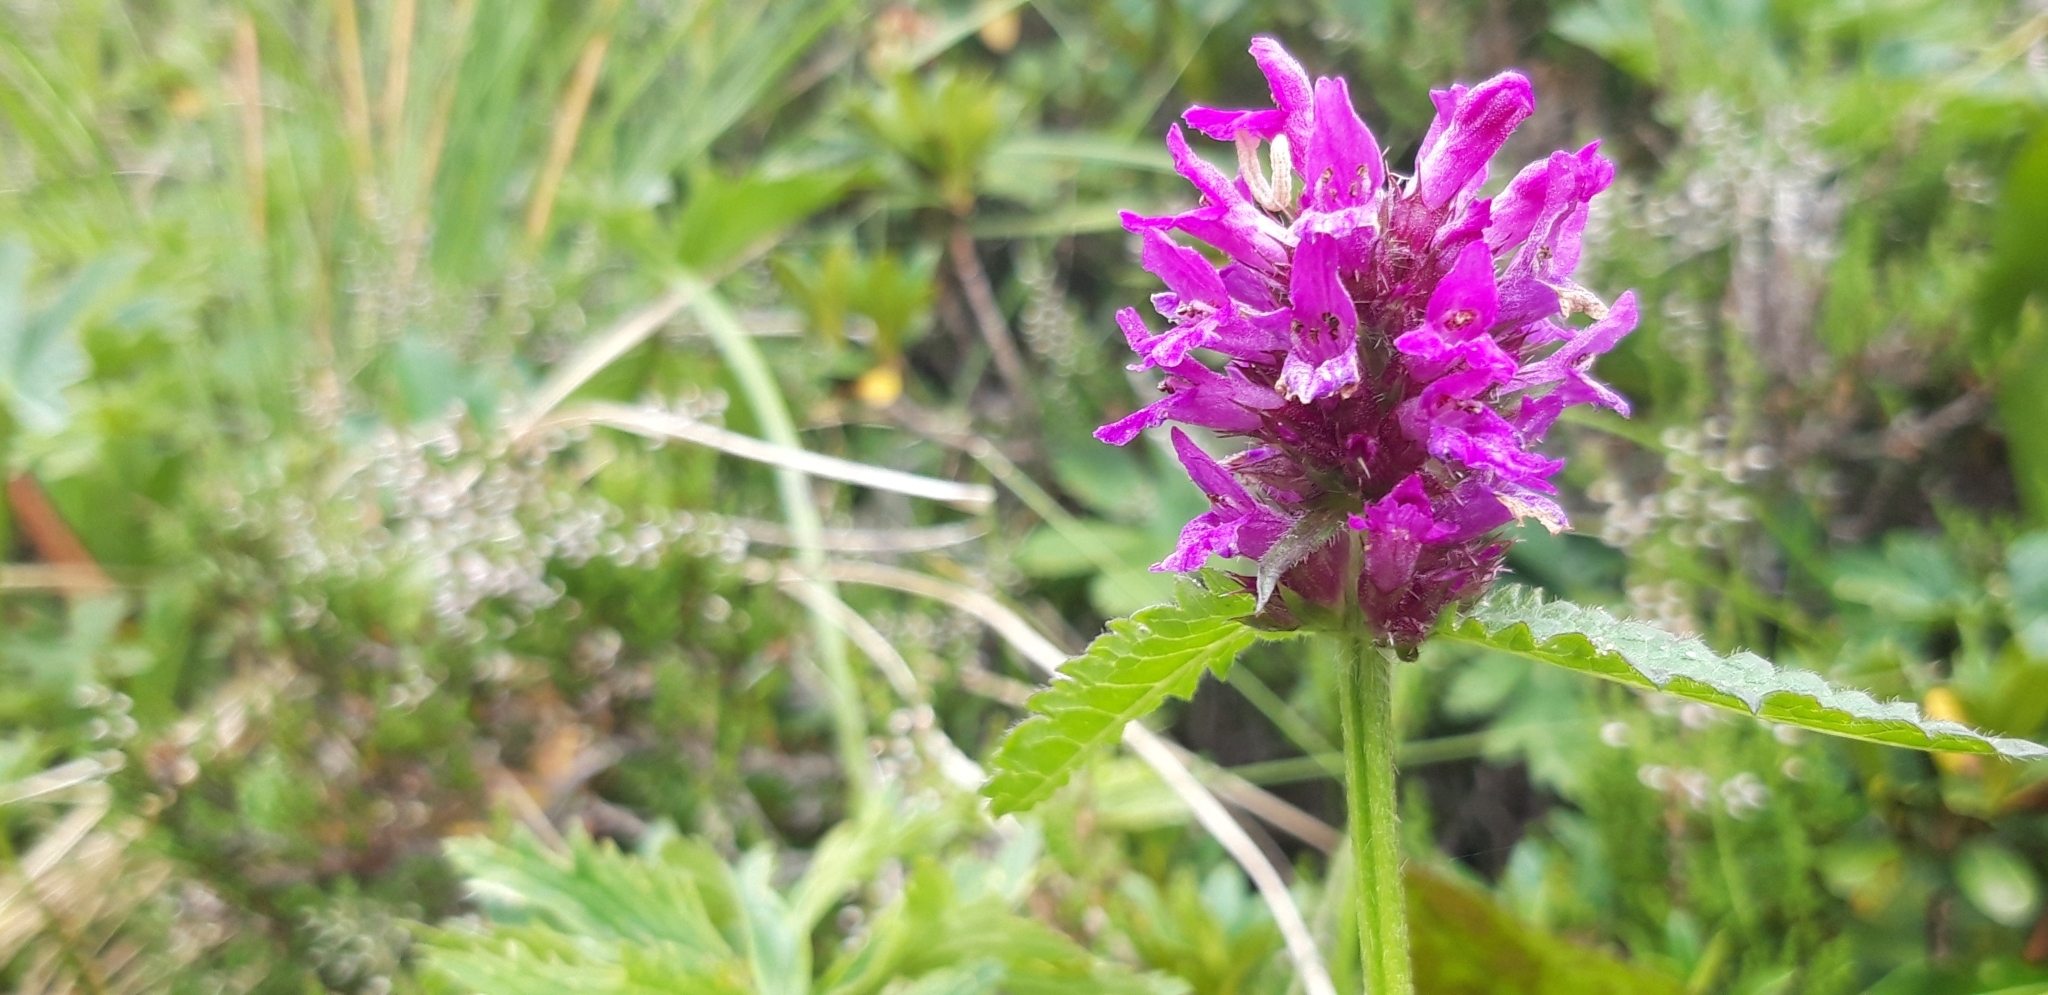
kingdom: Plantae
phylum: Tracheophyta
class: Magnoliopsida
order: Lamiales
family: Lamiaceae
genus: Betonica
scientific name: Betonica officinalis
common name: Bishop's-wort
